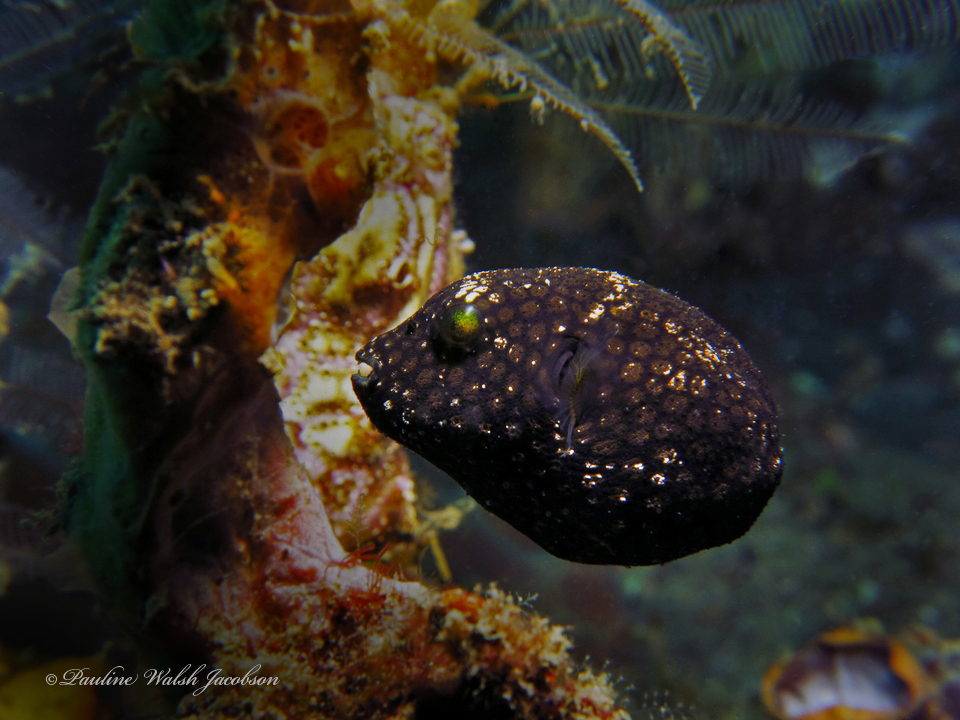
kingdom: Animalia
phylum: Chordata
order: Tetraodontiformes
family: Tetraodontidae
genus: Arothron
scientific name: Arothron meleagris
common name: Guinea-fowl pufferfish
